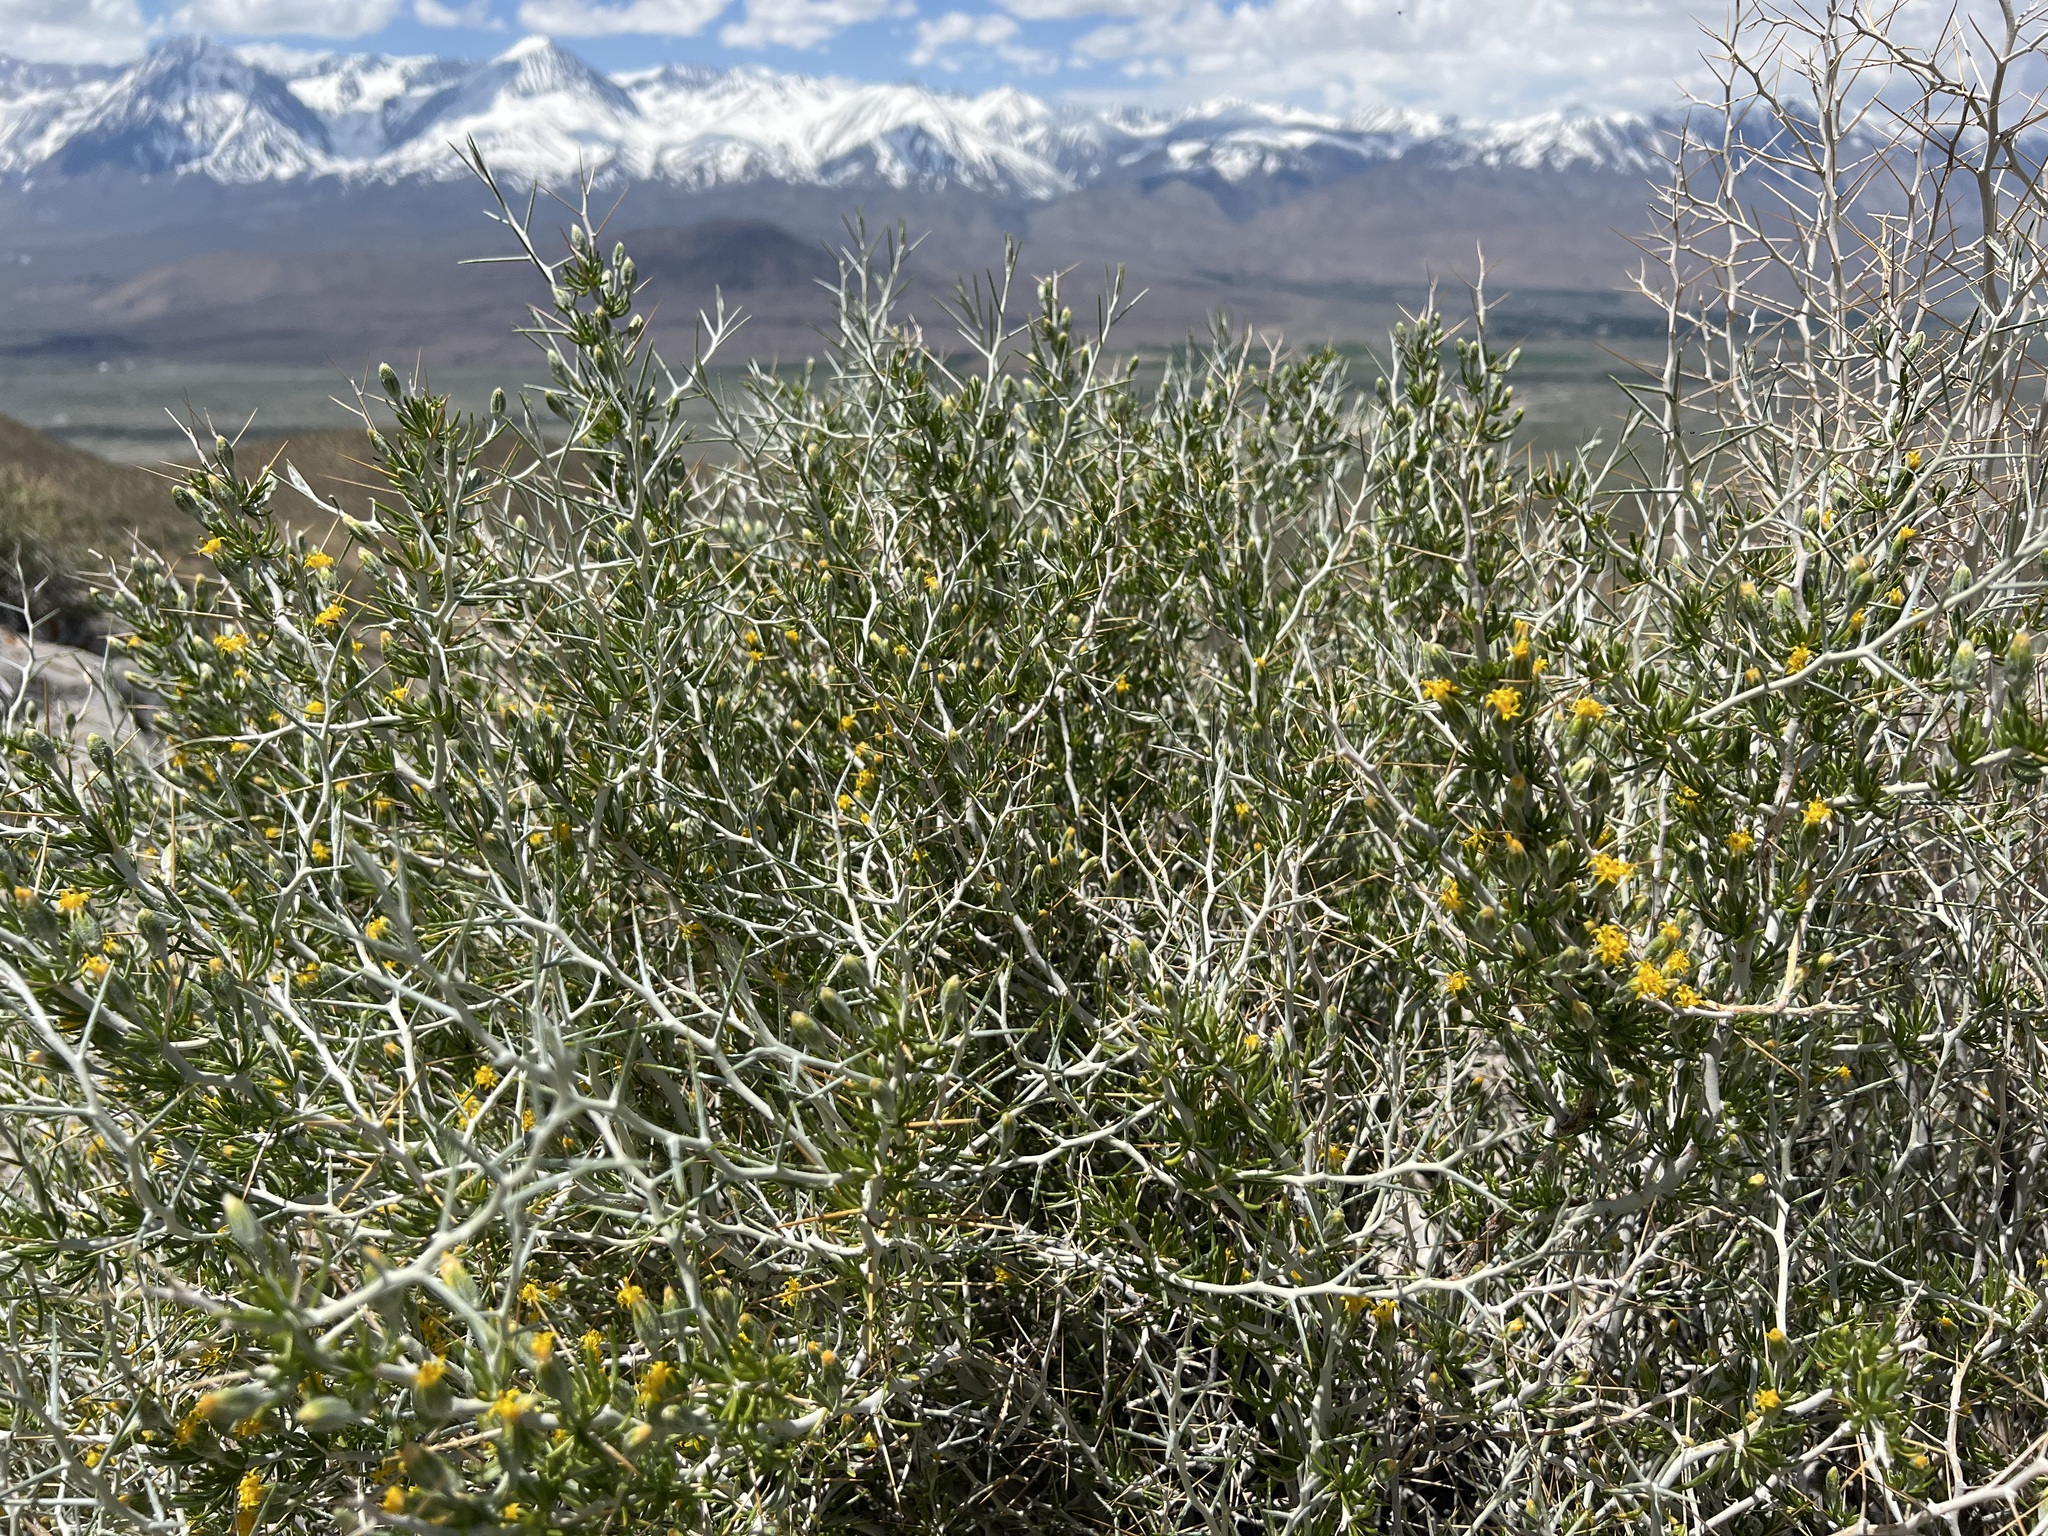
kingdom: Plantae
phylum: Tracheophyta
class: Magnoliopsida
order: Asterales
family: Asteraceae
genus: Tetradymia
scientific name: Tetradymia axillaris
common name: Long-spine horsebrush
